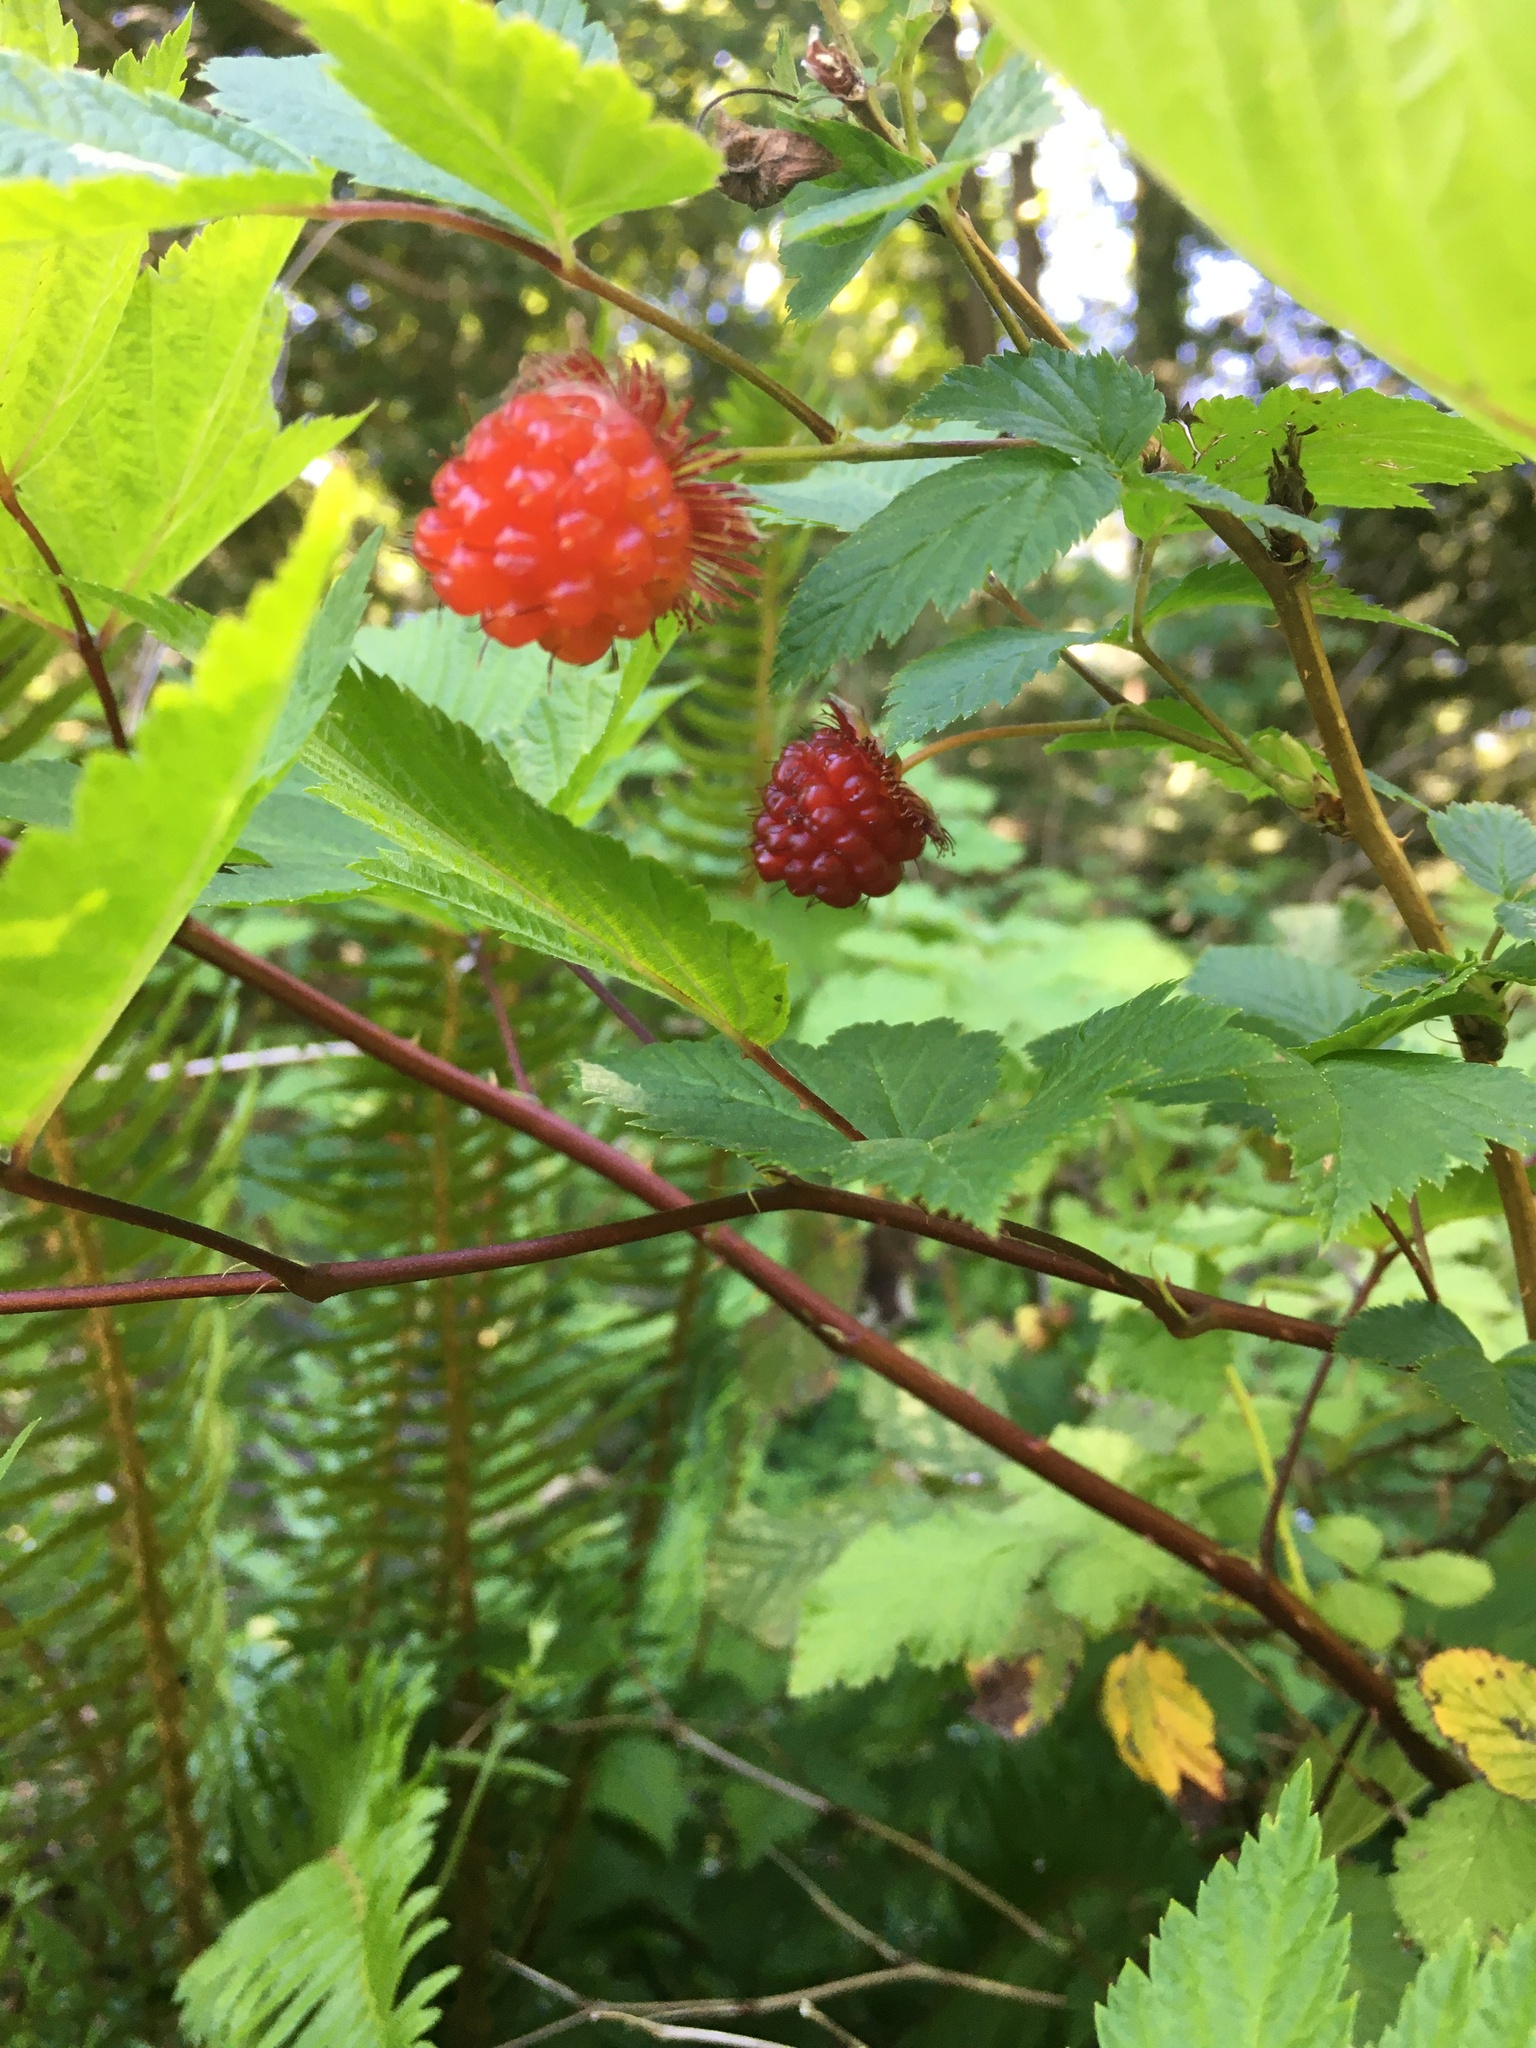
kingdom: Plantae
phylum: Tracheophyta
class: Magnoliopsida
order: Rosales
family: Rosaceae
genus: Rubus
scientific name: Rubus spectabilis
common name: Salmonberry
